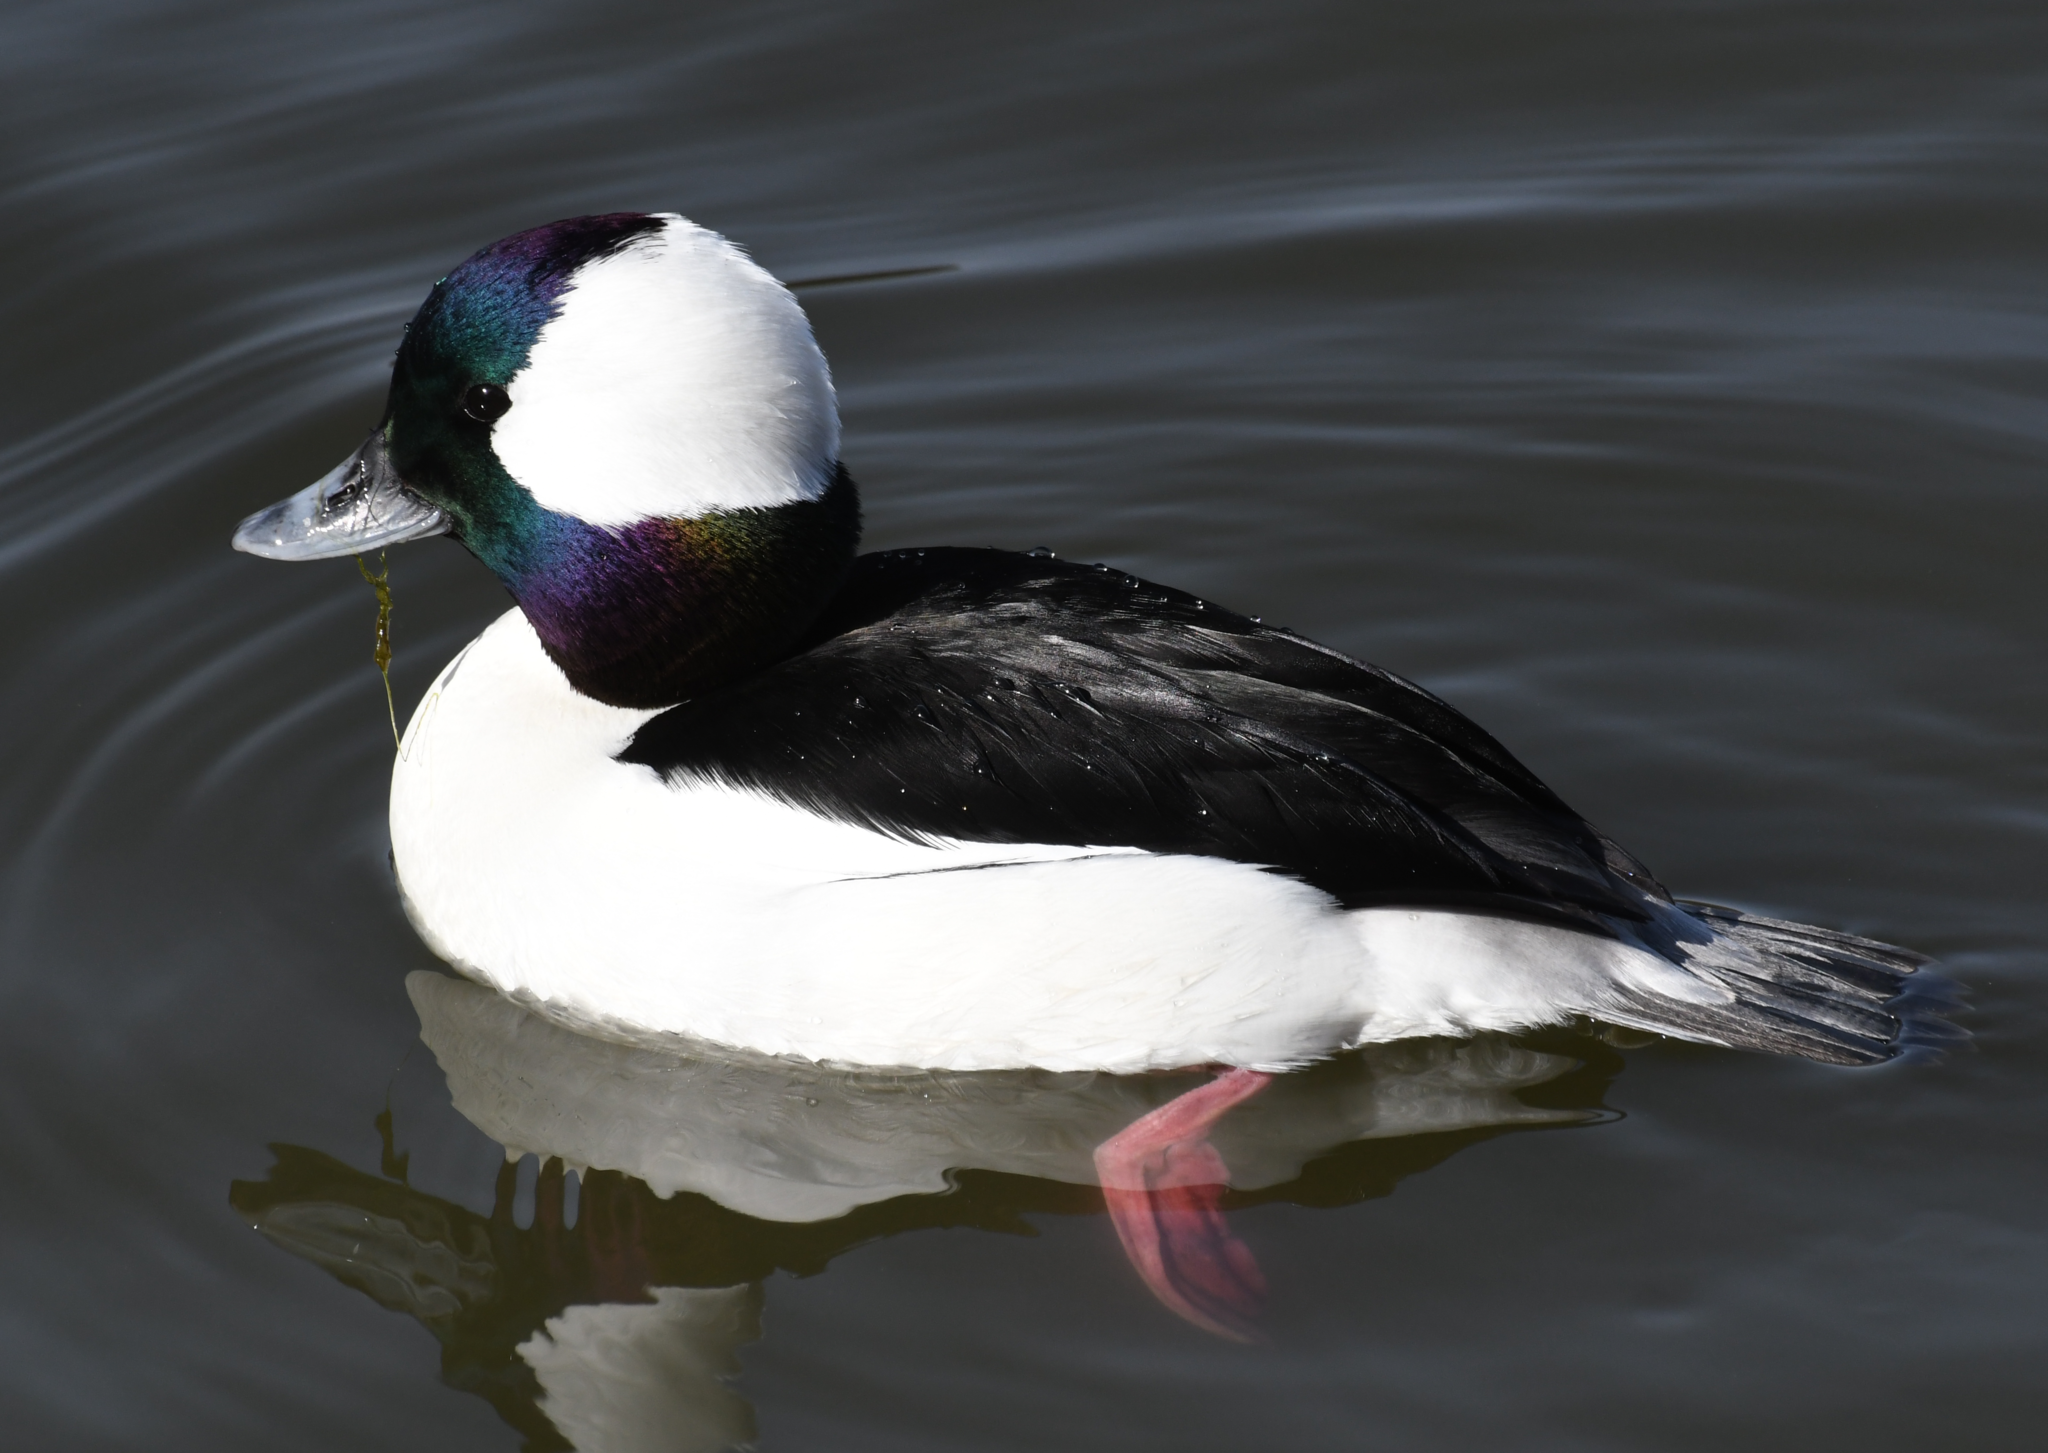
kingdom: Animalia
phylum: Chordata
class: Aves
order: Anseriformes
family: Anatidae
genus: Bucephala
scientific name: Bucephala albeola
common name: Bufflehead
